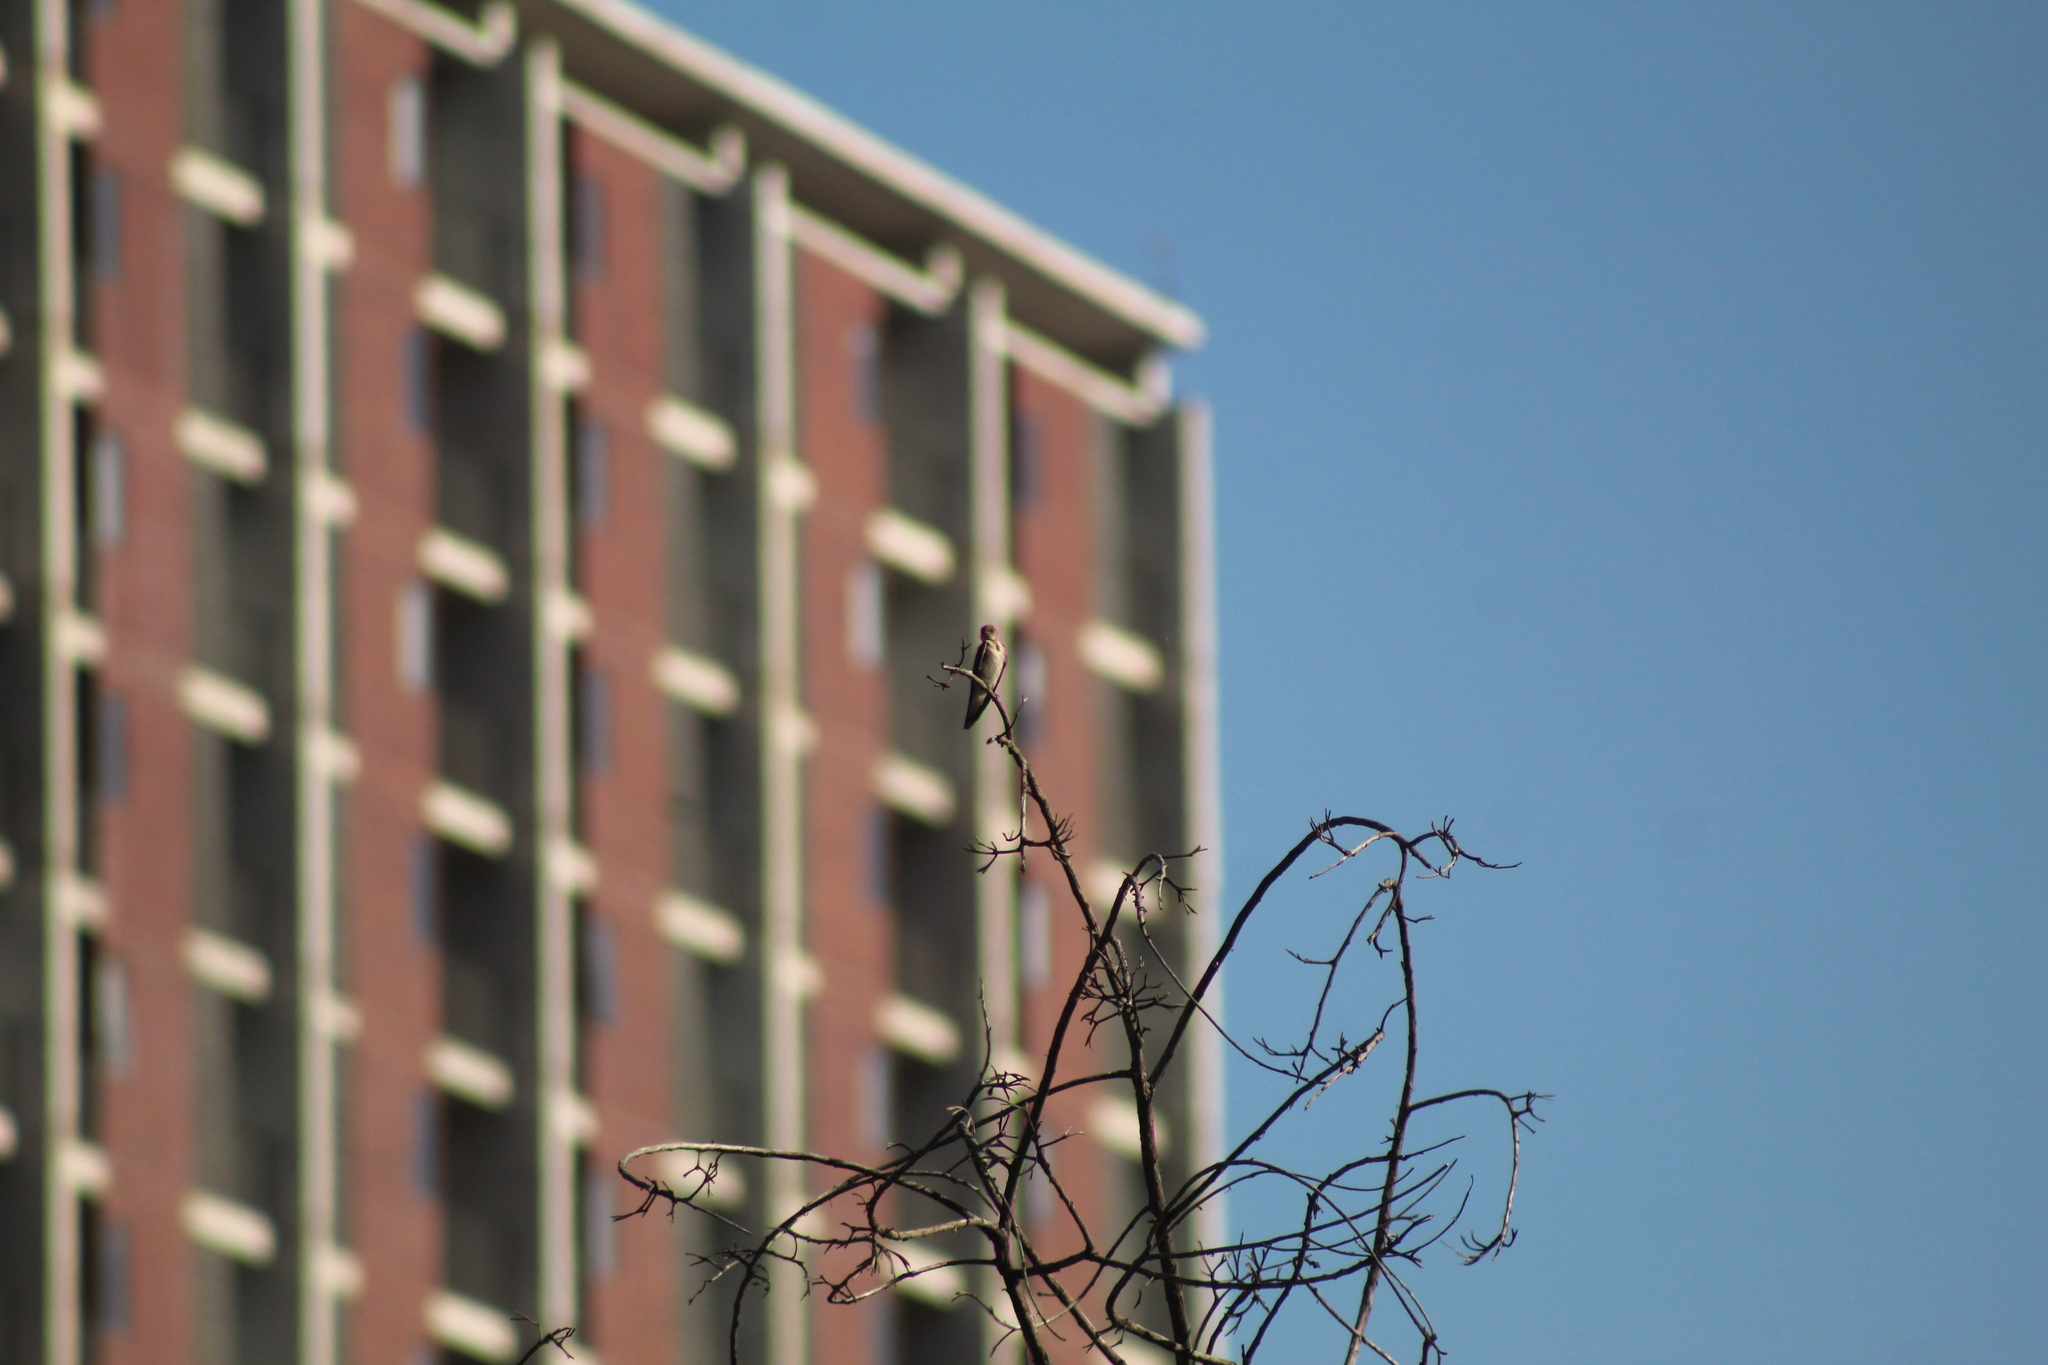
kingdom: Animalia
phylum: Chordata
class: Aves
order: Passeriformes
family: Hirundinidae
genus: Stelgidopteryx
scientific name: Stelgidopteryx serripennis
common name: Northern rough-winged swallow
